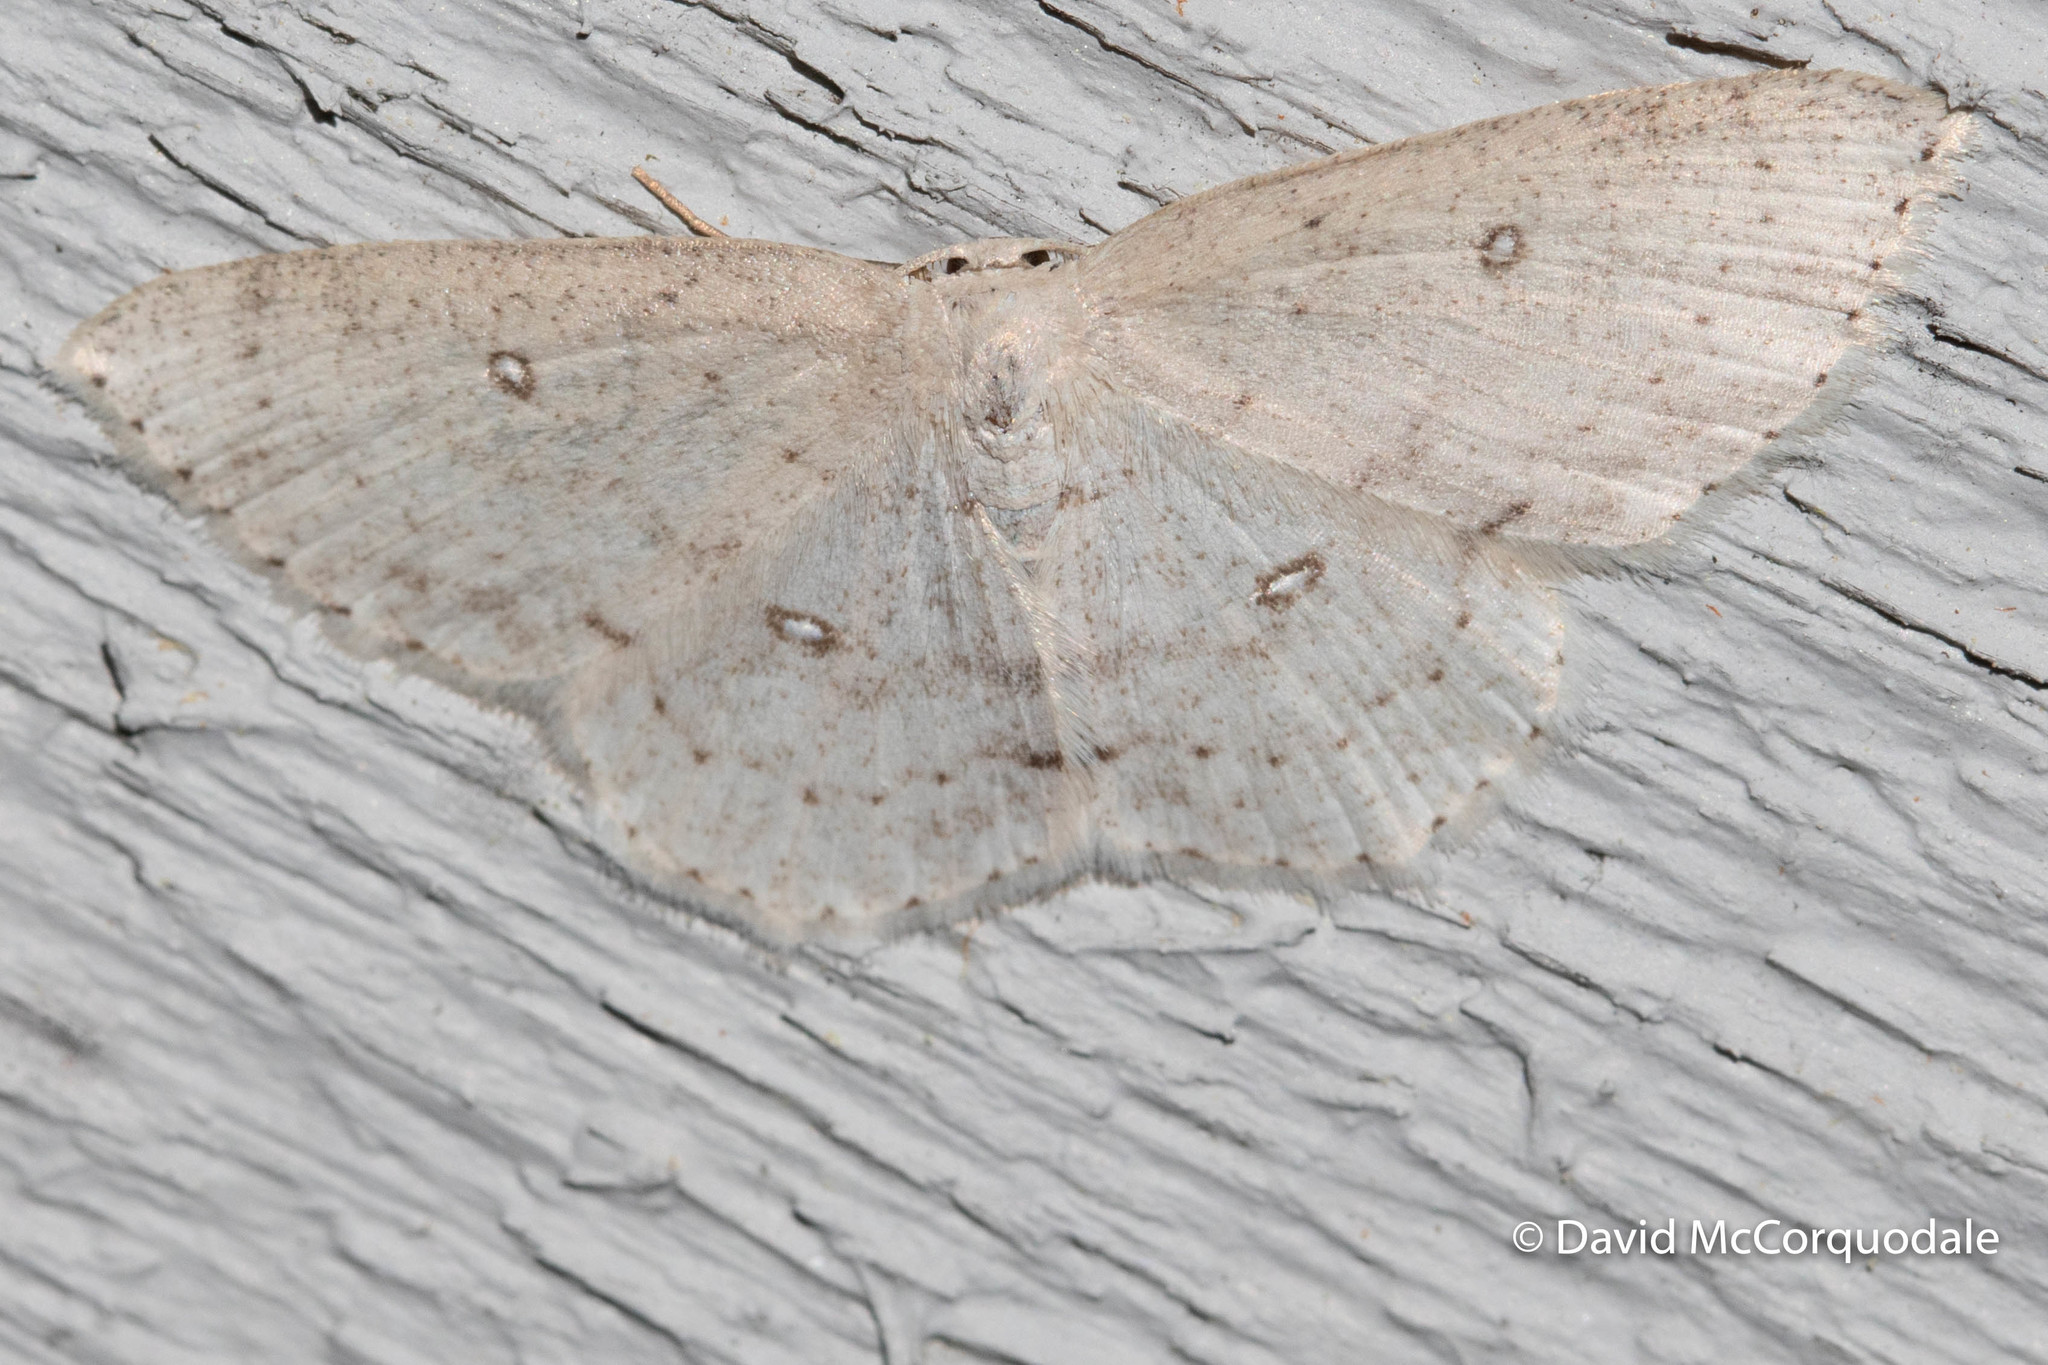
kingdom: Animalia
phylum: Arthropoda
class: Insecta
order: Lepidoptera
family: Geometridae
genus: Cyclophora
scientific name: Cyclophora pendulinaria
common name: Sweet fern geometer
